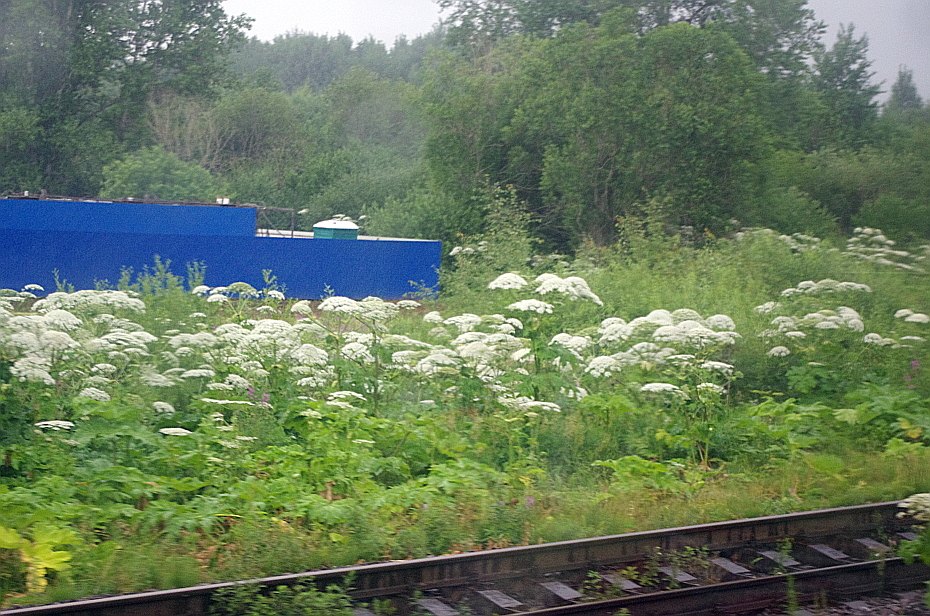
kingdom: Plantae
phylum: Tracheophyta
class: Magnoliopsida
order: Apiales
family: Apiaceae
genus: Heracleum
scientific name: Heracleum sosnowskyi
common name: Sosnowsky's hogweed
